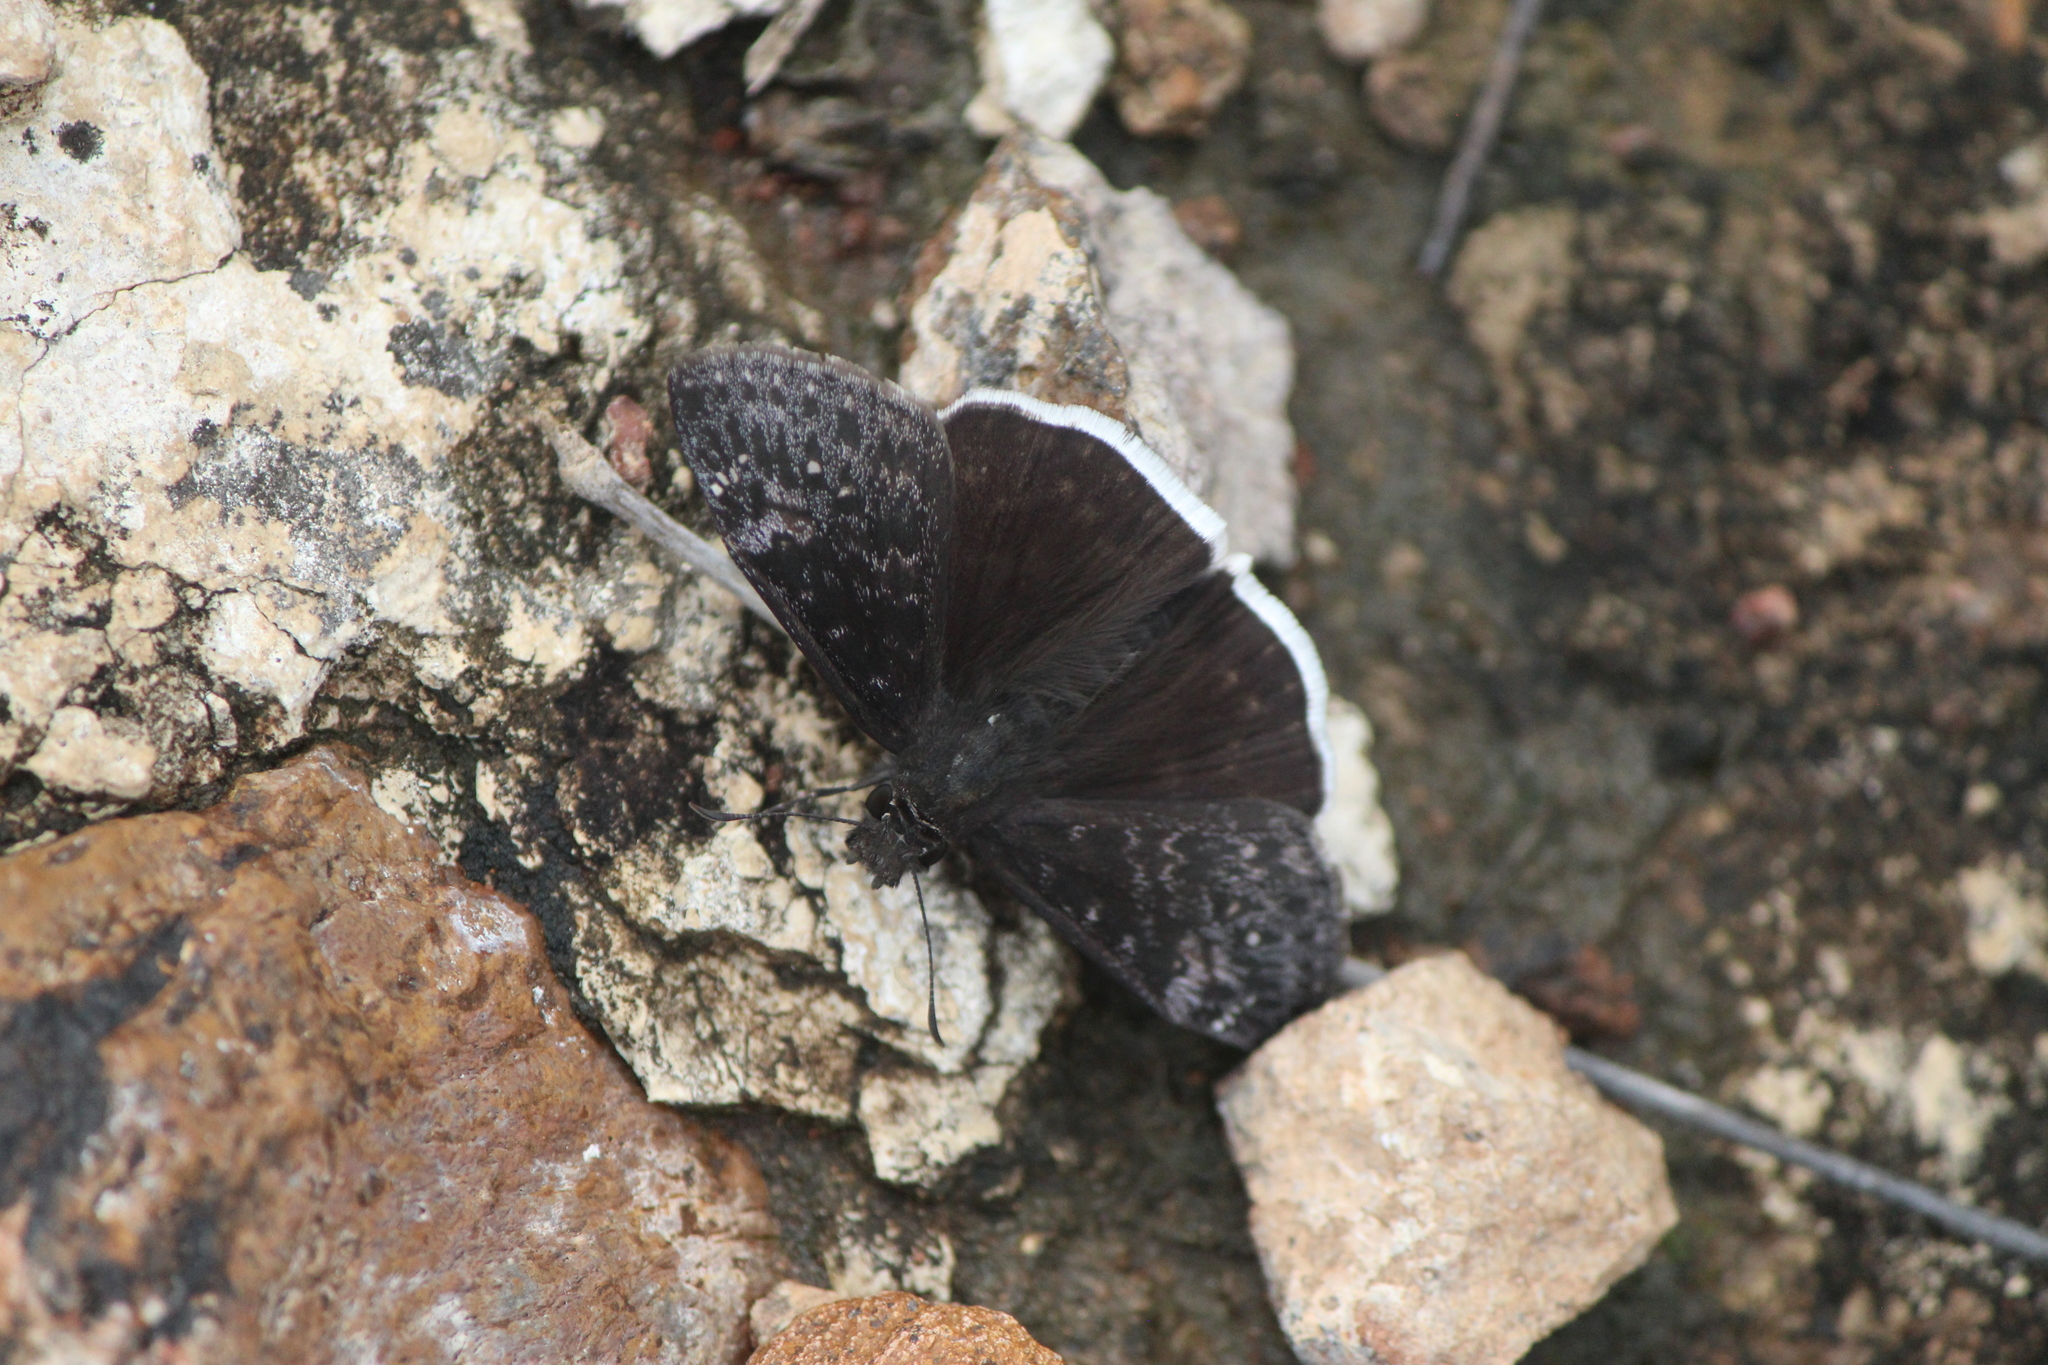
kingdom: Animalia
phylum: Arthropoda
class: Insecta
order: Lepidoptera
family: Hesperiidae
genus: Erynnis
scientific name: Erynnis funeralis
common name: Funereal duskywing
